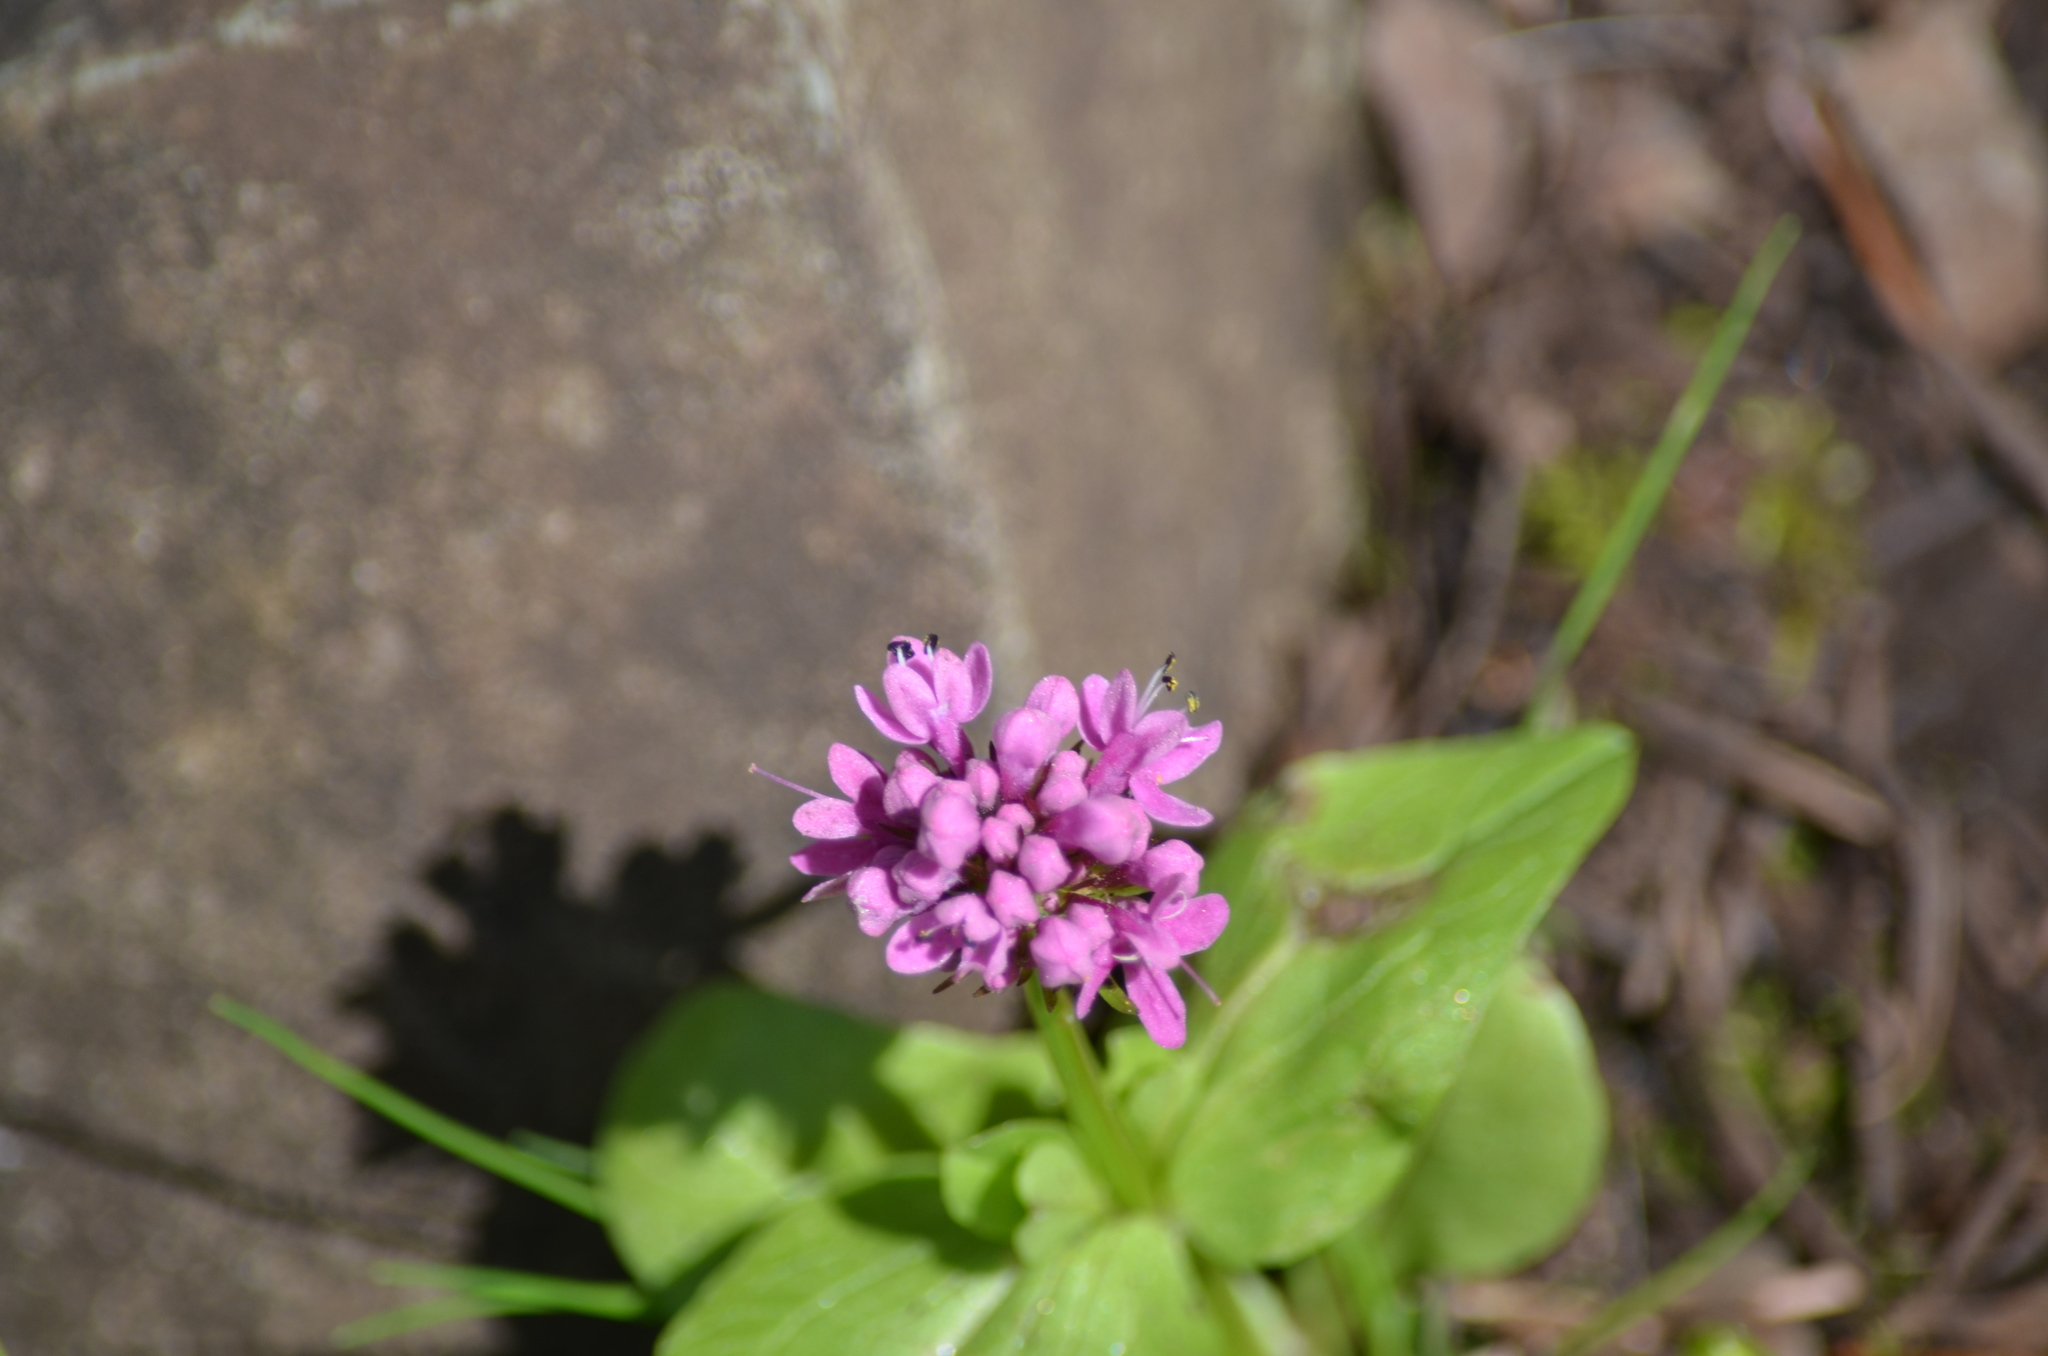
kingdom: Plantae
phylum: Tracheophyta
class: Magnoliopsida
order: Dipsacales
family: Caprifoliaceae
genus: Plectritis
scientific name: Plectritis congesta
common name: Pink plectritis
